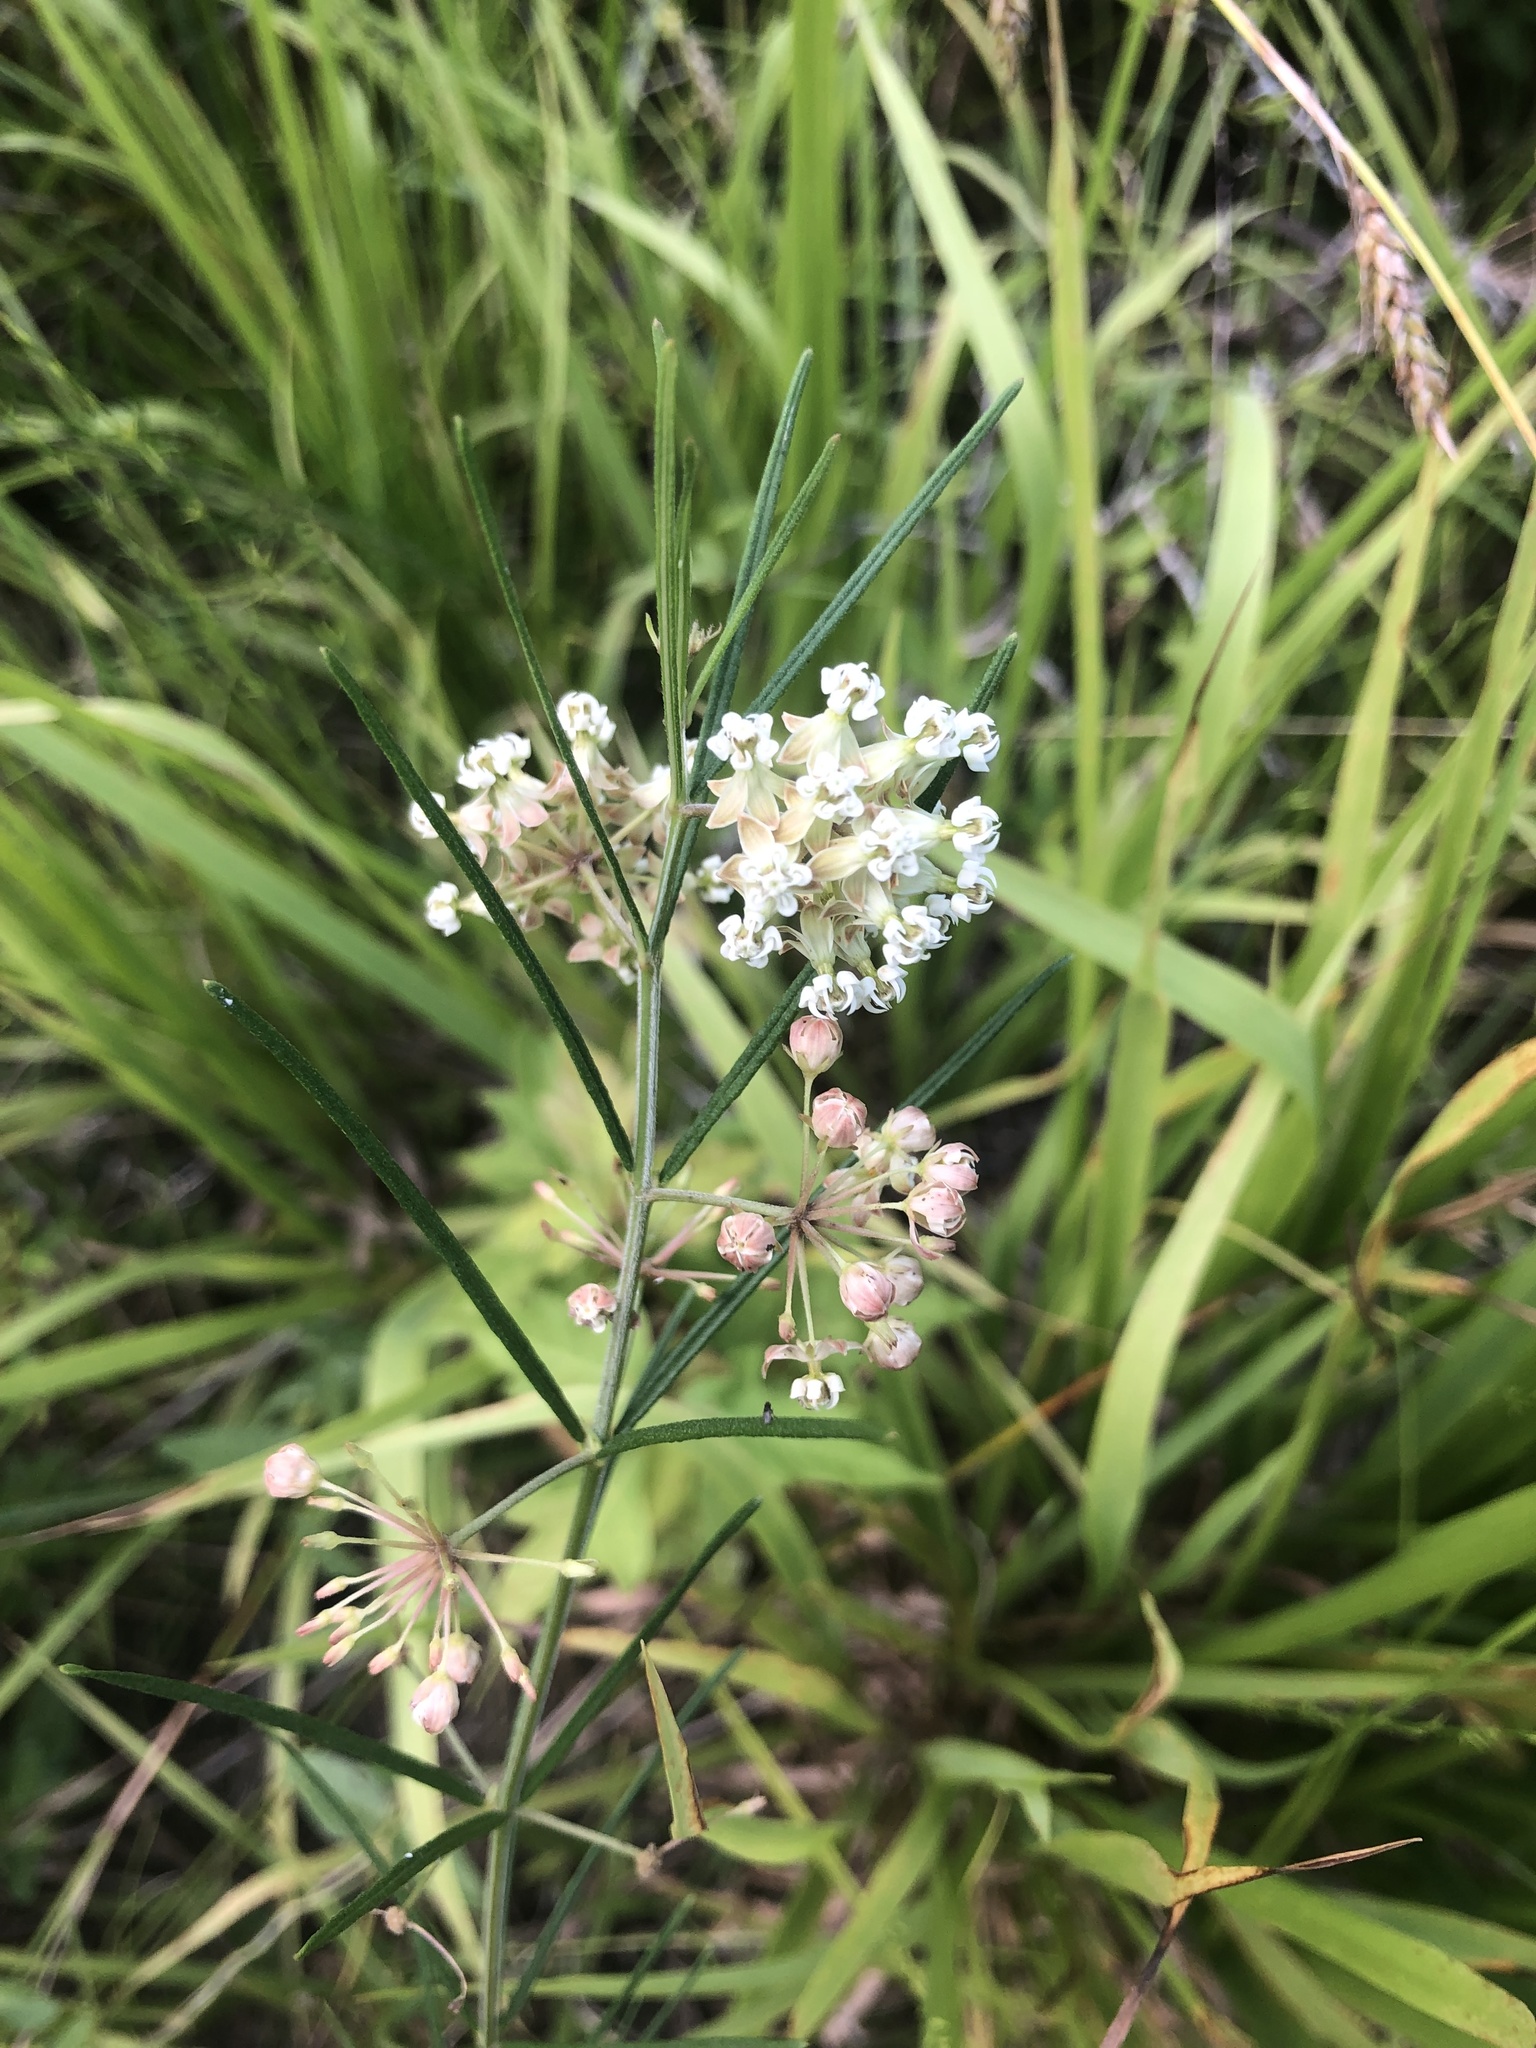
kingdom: Plantae
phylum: Tracheophyta
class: Magnoliopsida
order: Gentianales
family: Apocynaceae
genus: Asclepias
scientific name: Asclepias verticillata
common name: Eastern whorled milkweed
